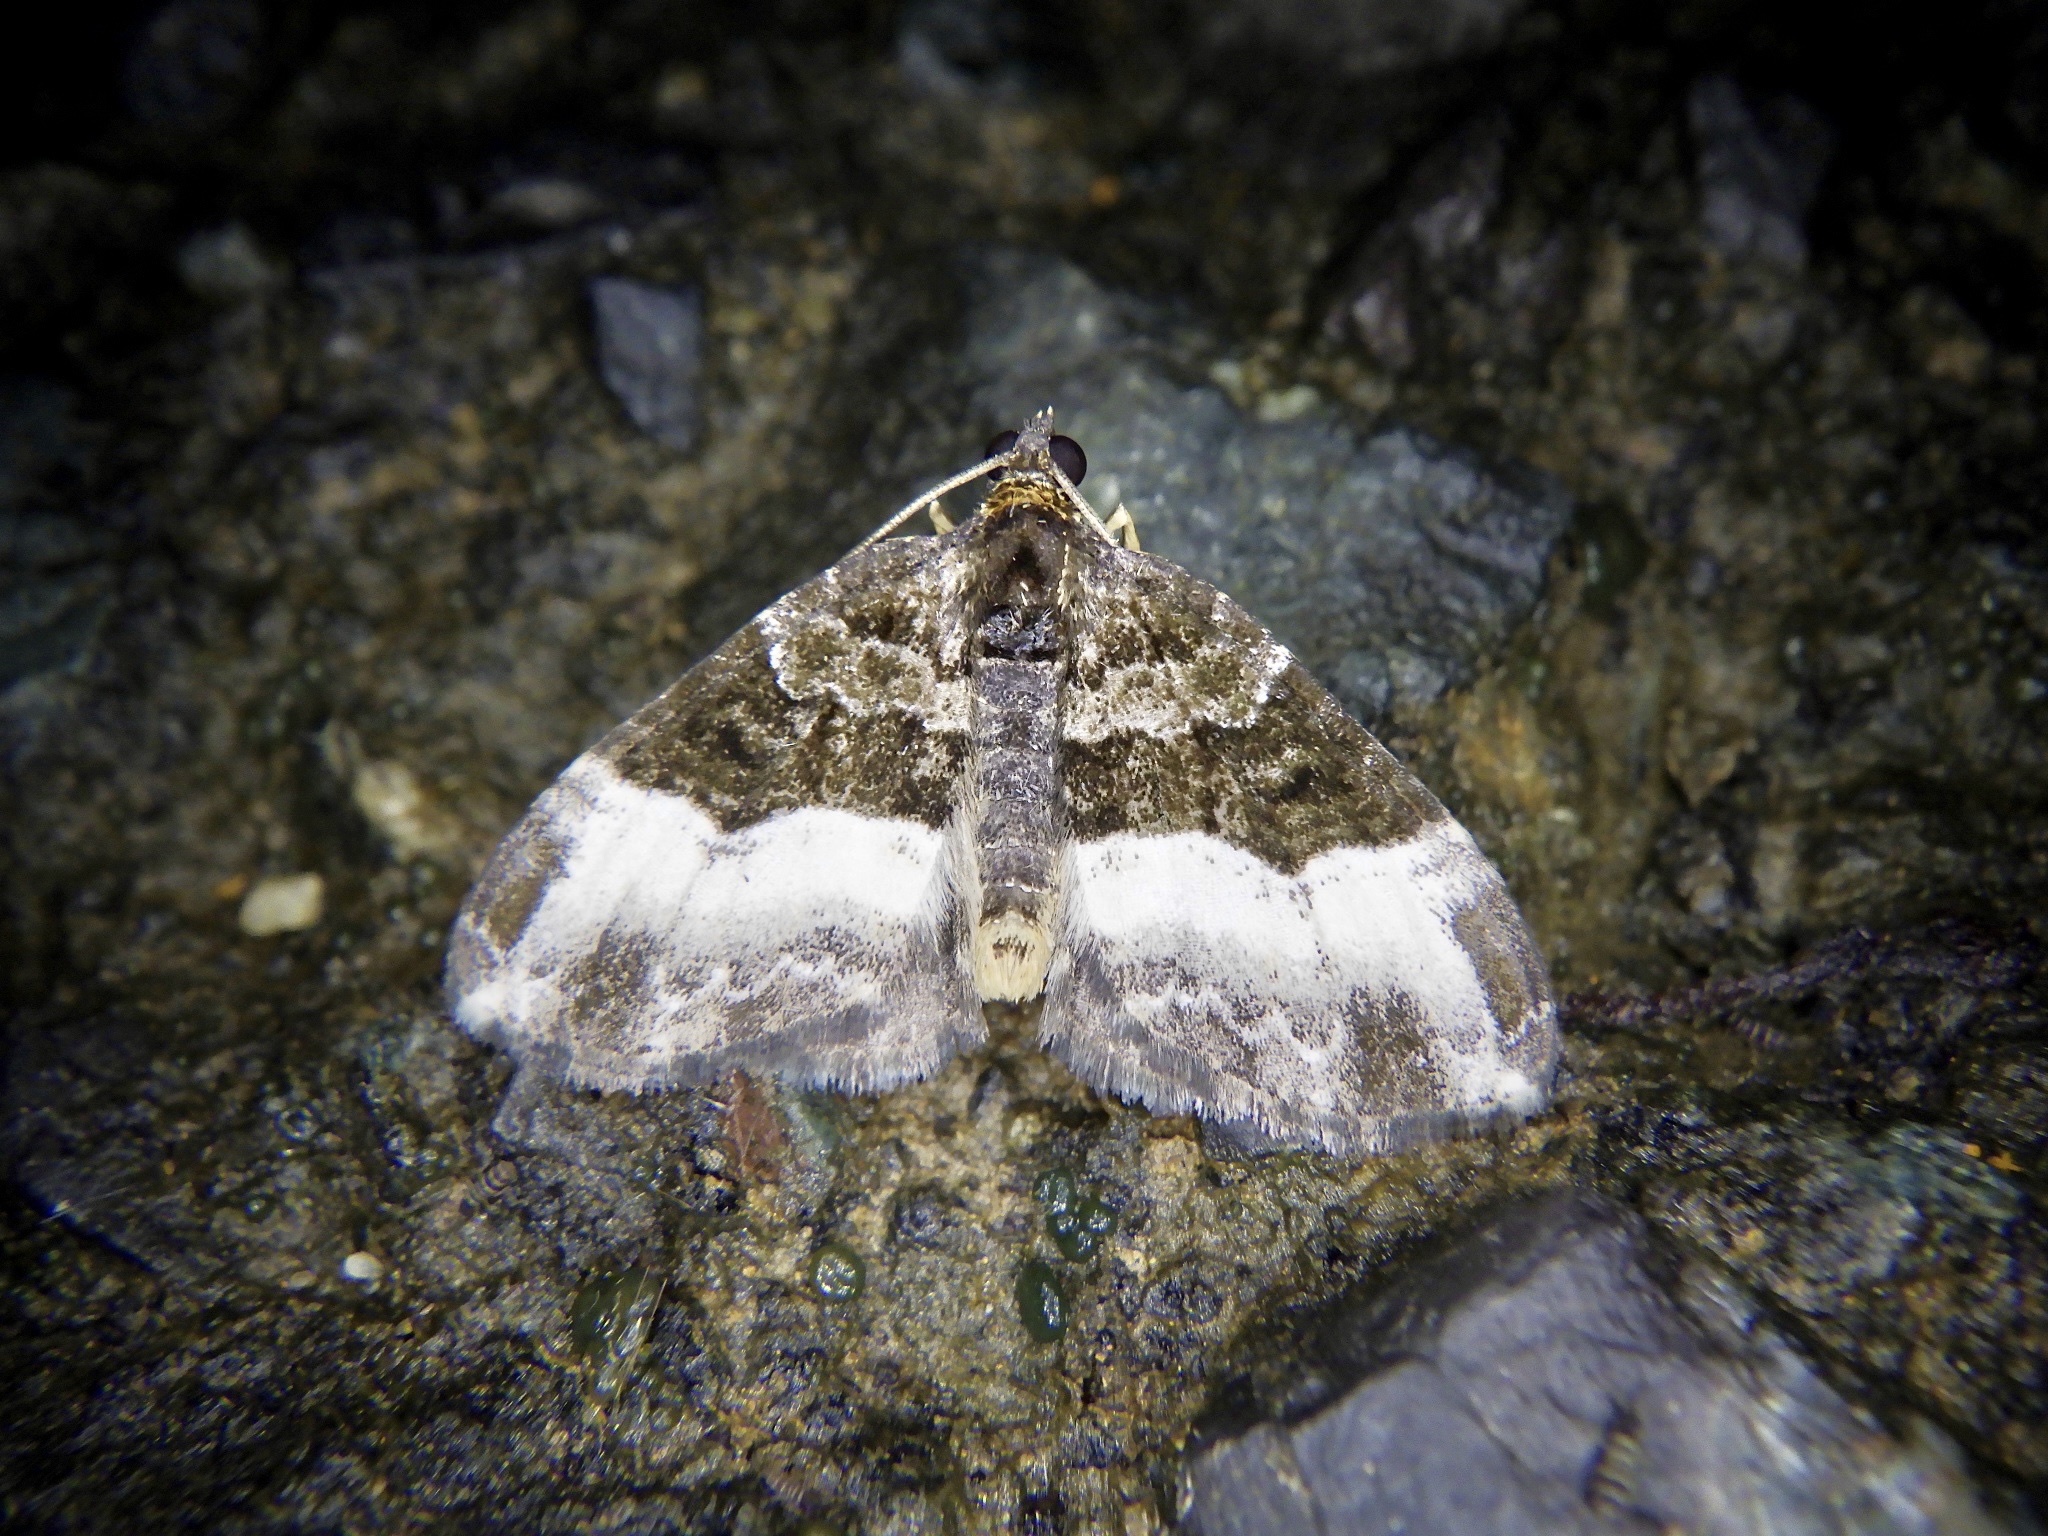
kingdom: Animalia
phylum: Arthropoda
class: Insecta
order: Lepidoptera
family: Geometridae
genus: Euphyia
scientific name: Euphyia cineraria
